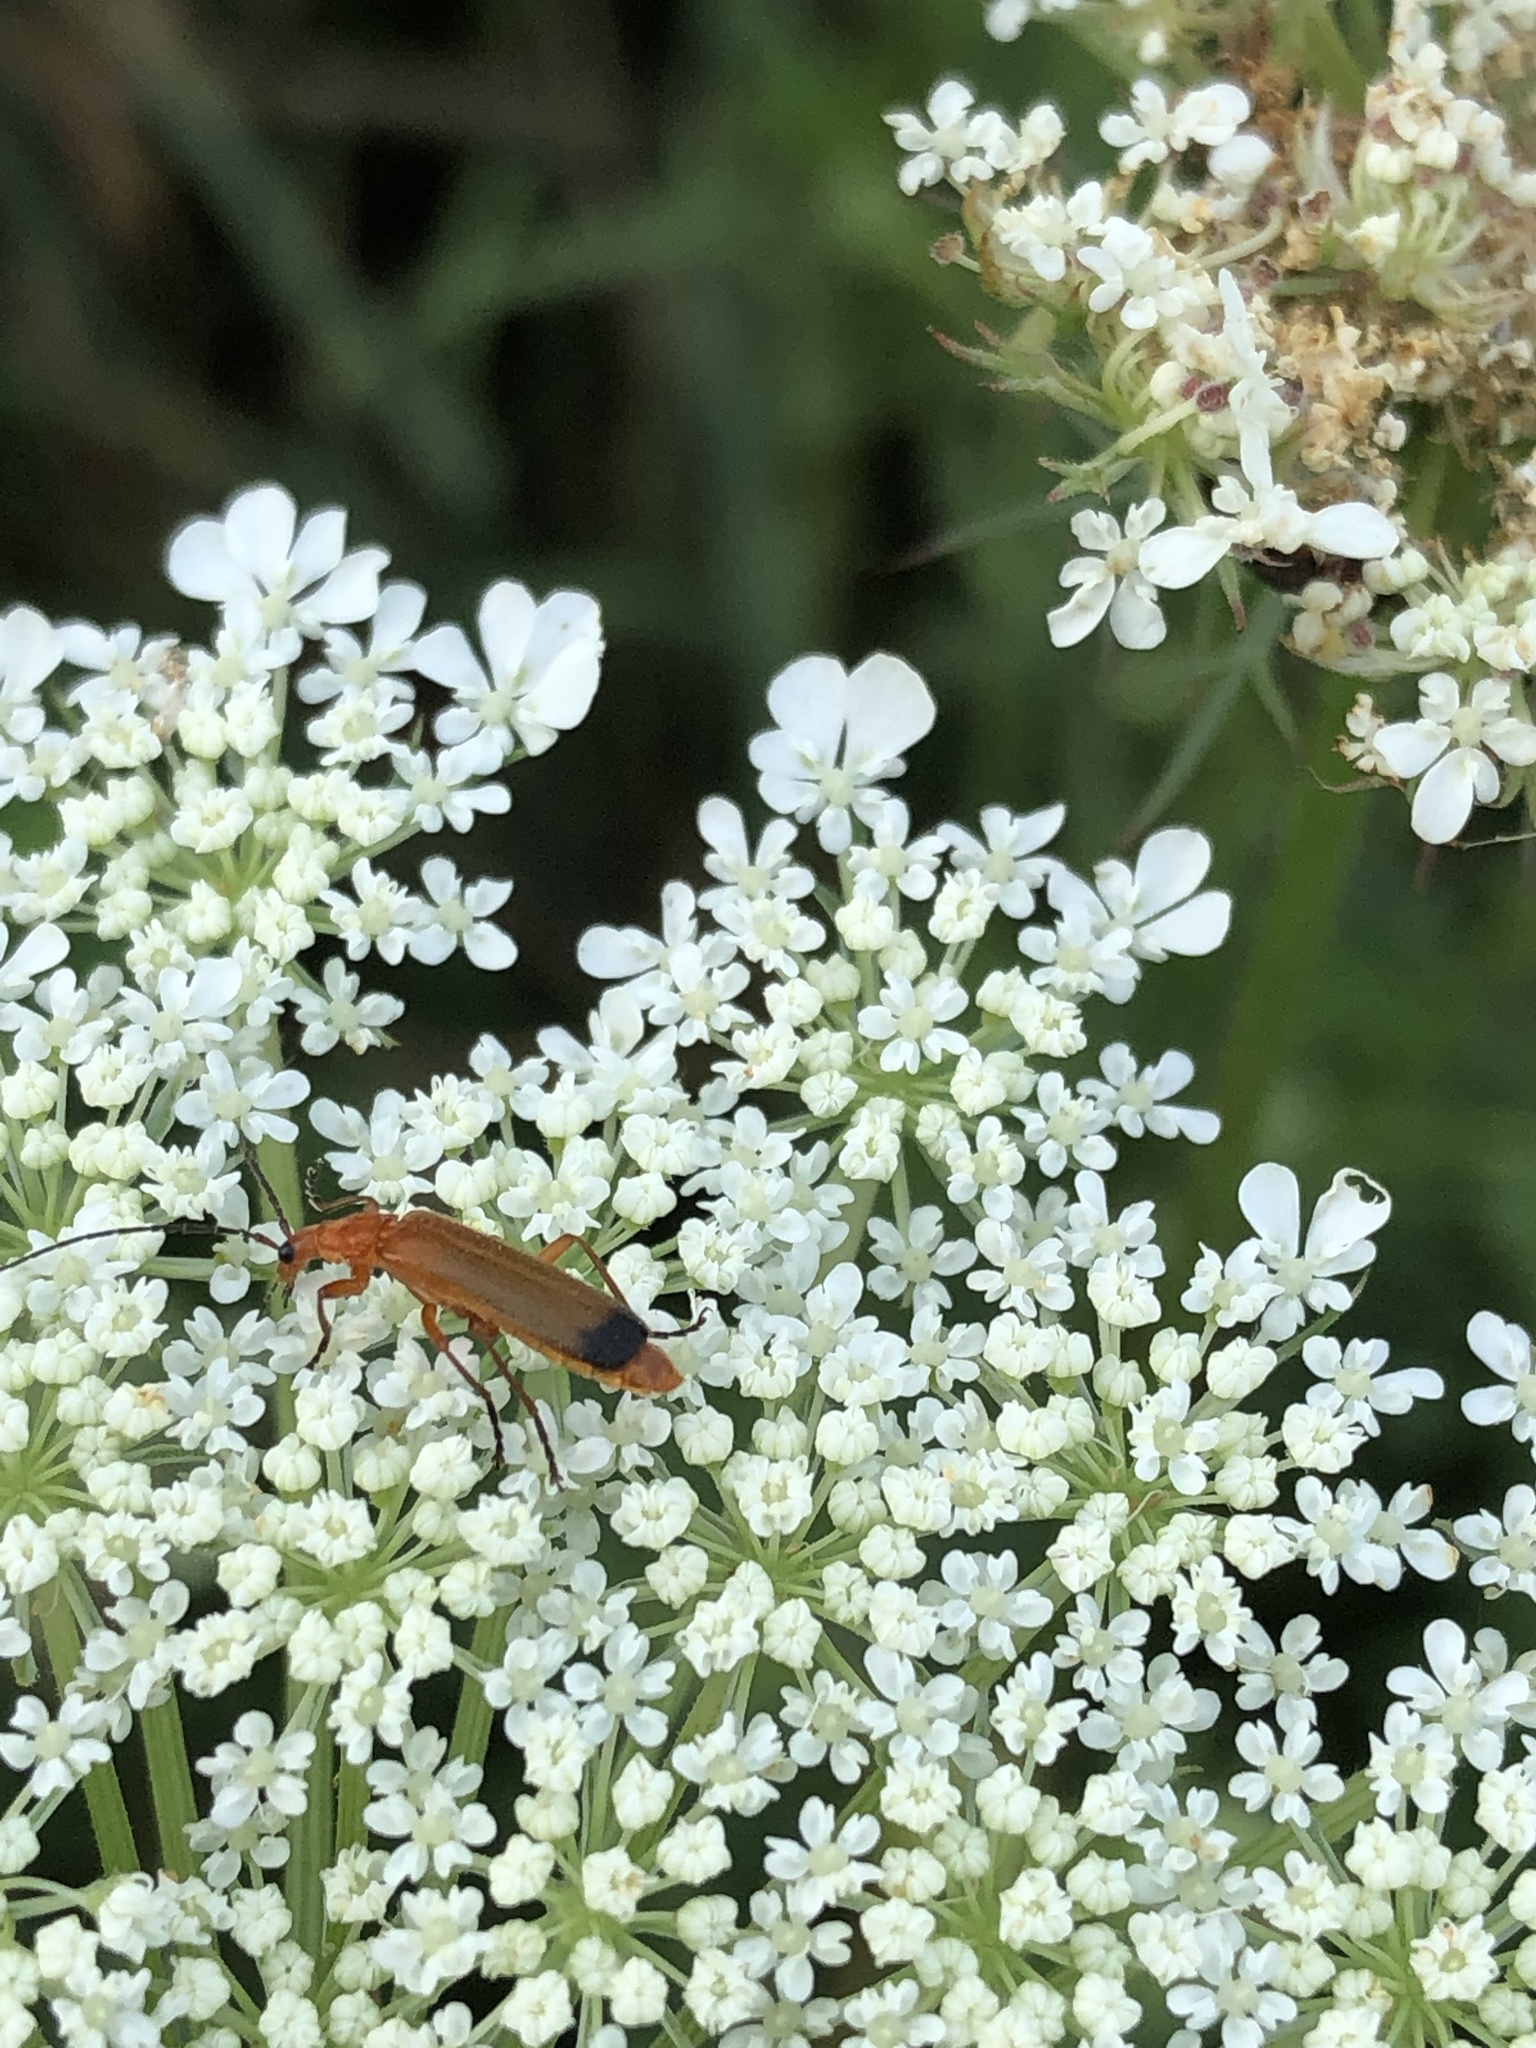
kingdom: Animalia
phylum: Arthropoda
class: Insecta
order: Coleoptera
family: Cantharidae
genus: Rhagonycha
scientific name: Rhagonycha fulva
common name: Common red soldier beetle
